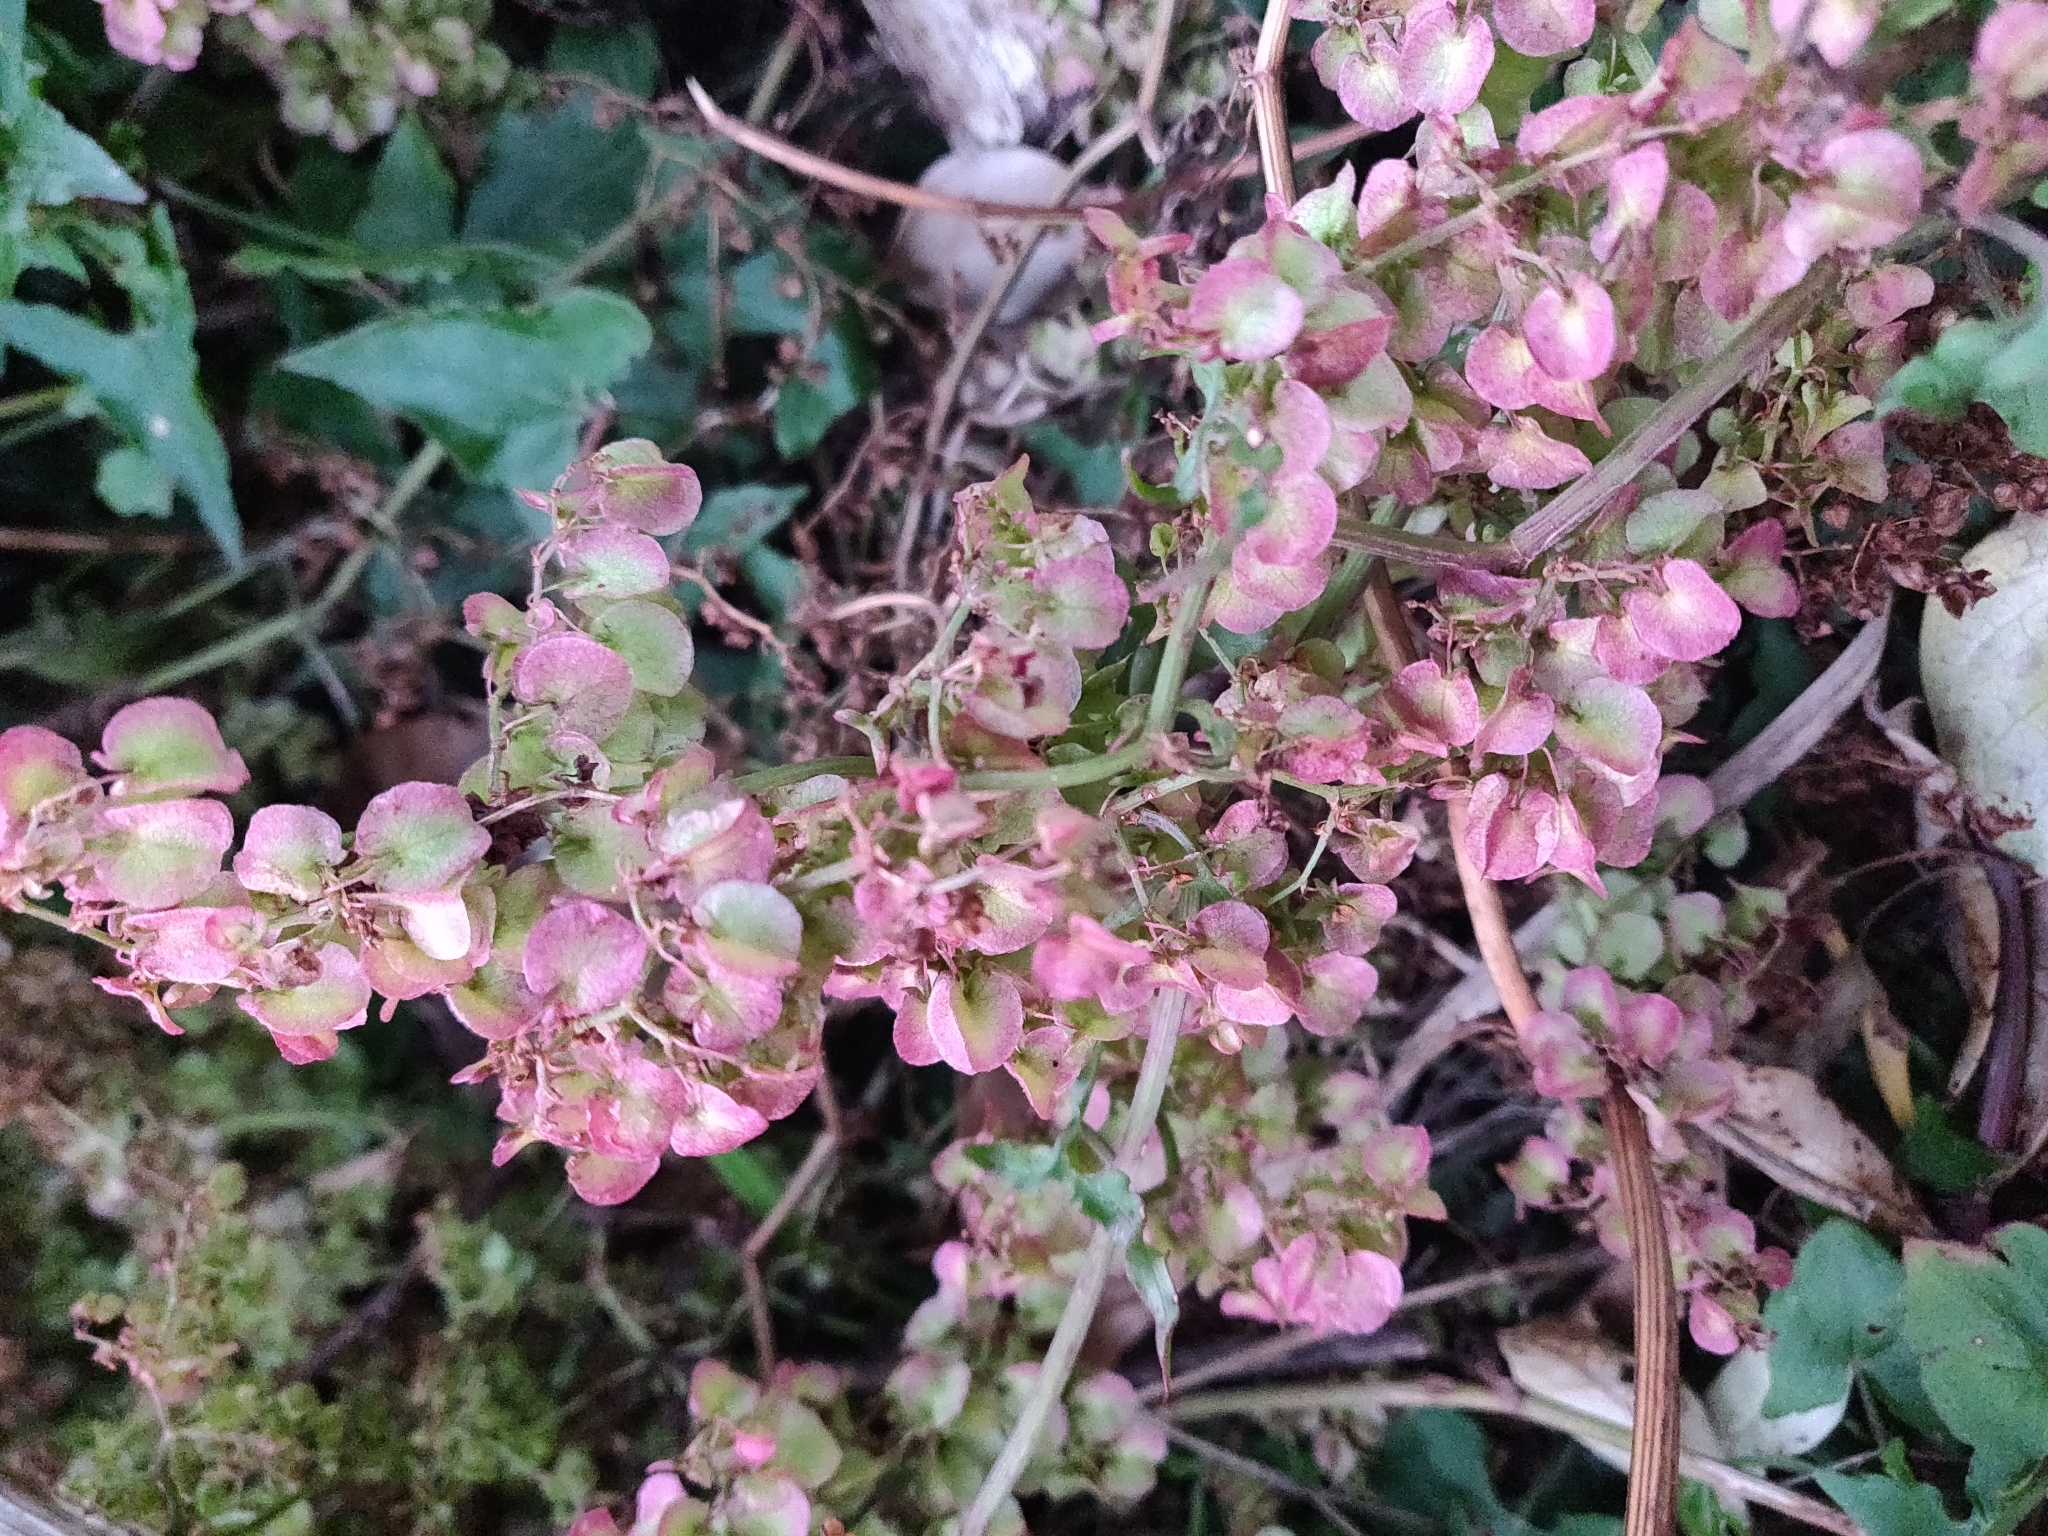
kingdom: Plantae
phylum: Tracheophyta
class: Magnoliopsida
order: Caryophyllales
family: Polygonaceae
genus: Rumex
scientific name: Rumex sagittatus
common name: Climbing dock
